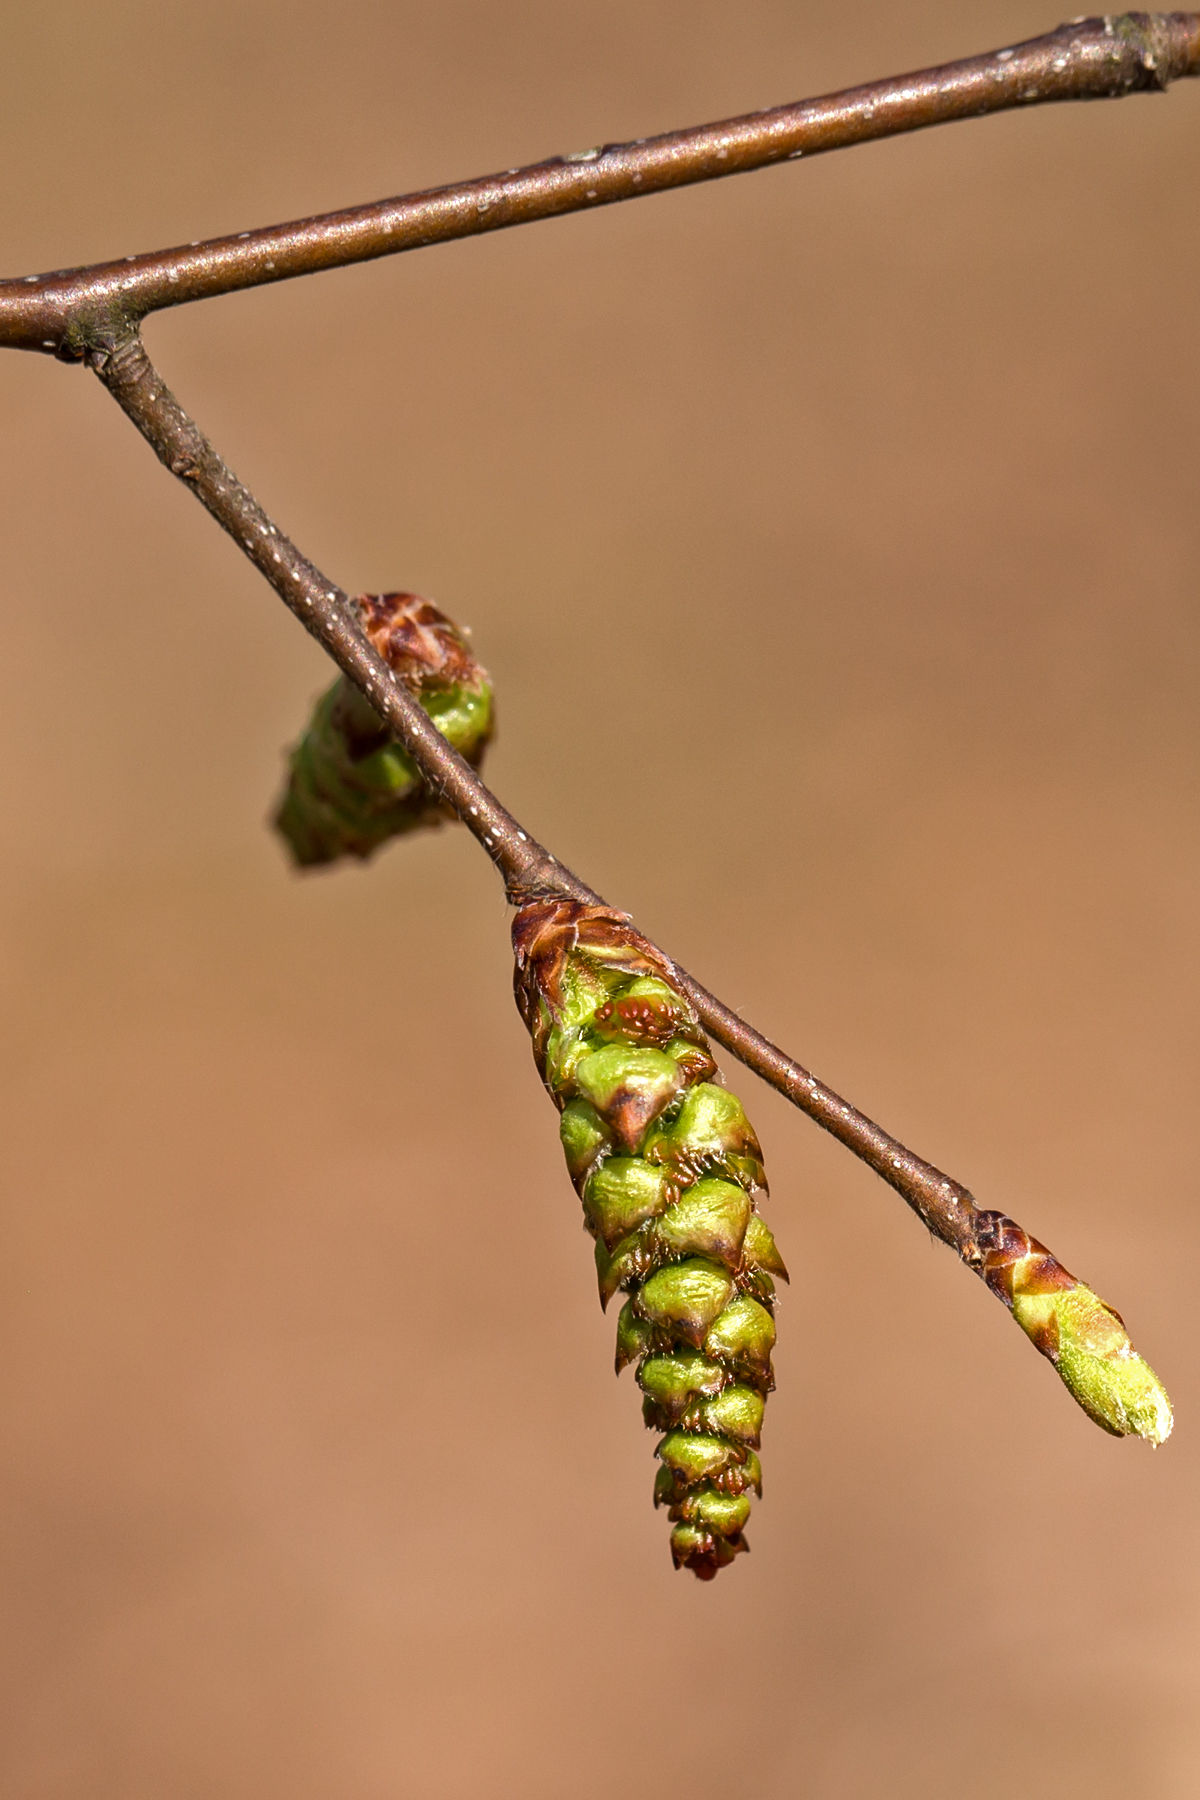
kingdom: Plantae
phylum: Tracheophyta
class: Magnoliopsida
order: Fagales
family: Betulaceae
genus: Carpinus
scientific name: Carpinus caroliniana
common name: American hornbeam
